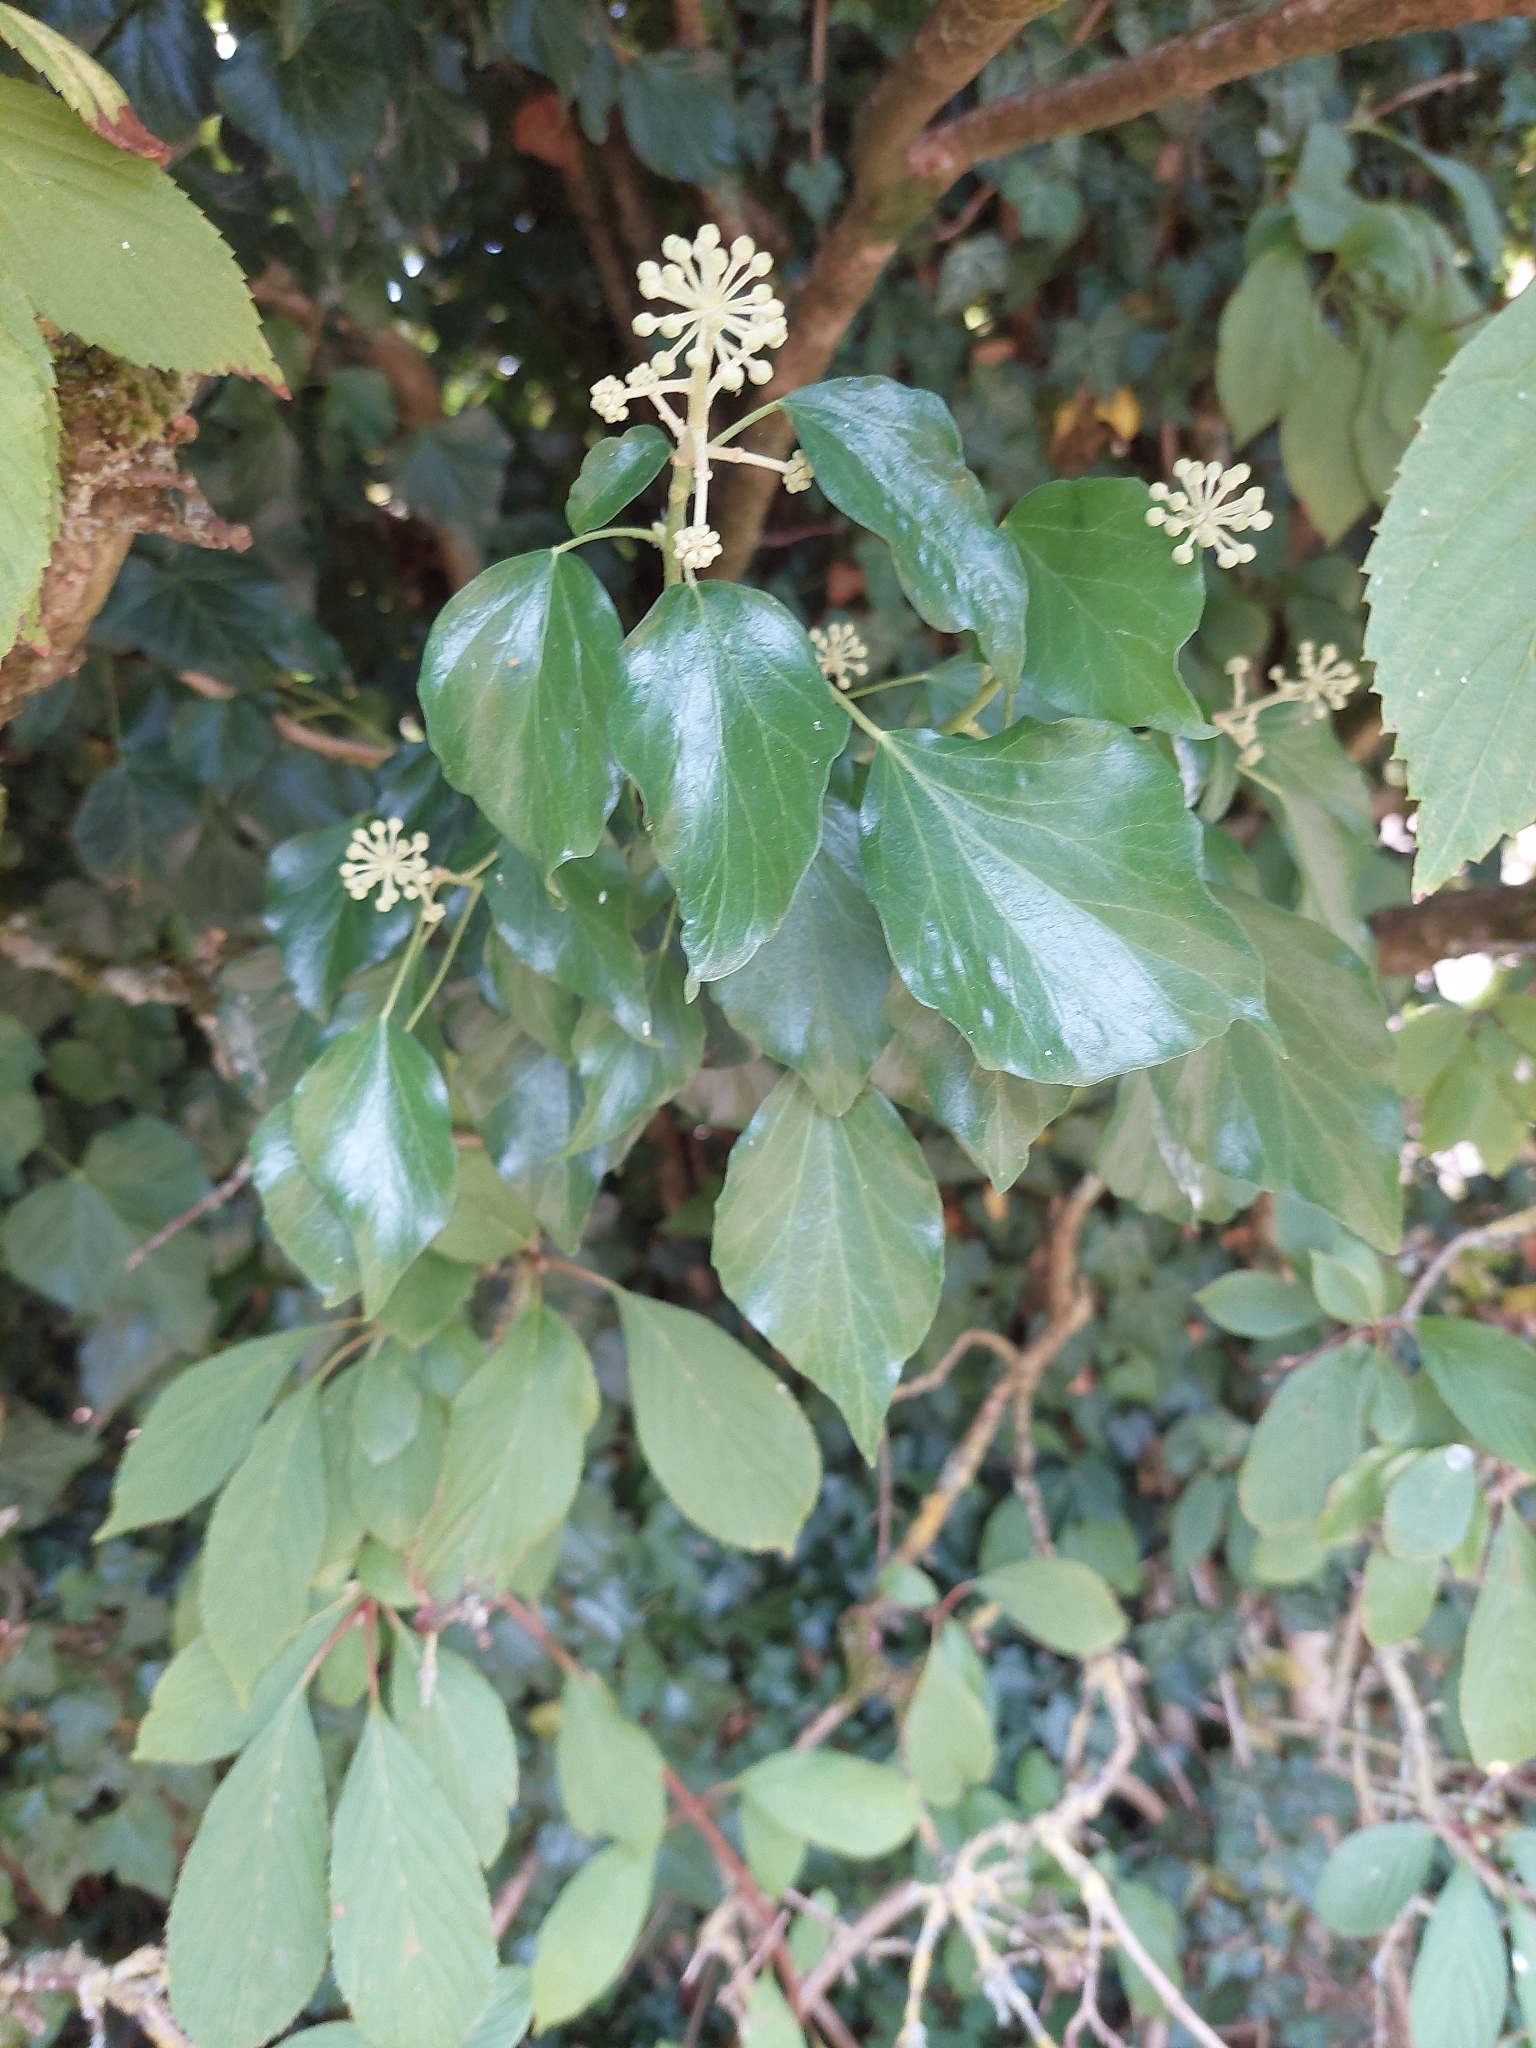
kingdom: Plantae
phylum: Tracheophyta
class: Magnoliopsida
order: Apiales
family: Araliaceae
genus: Hedera
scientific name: Hedera helix
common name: Ivy
